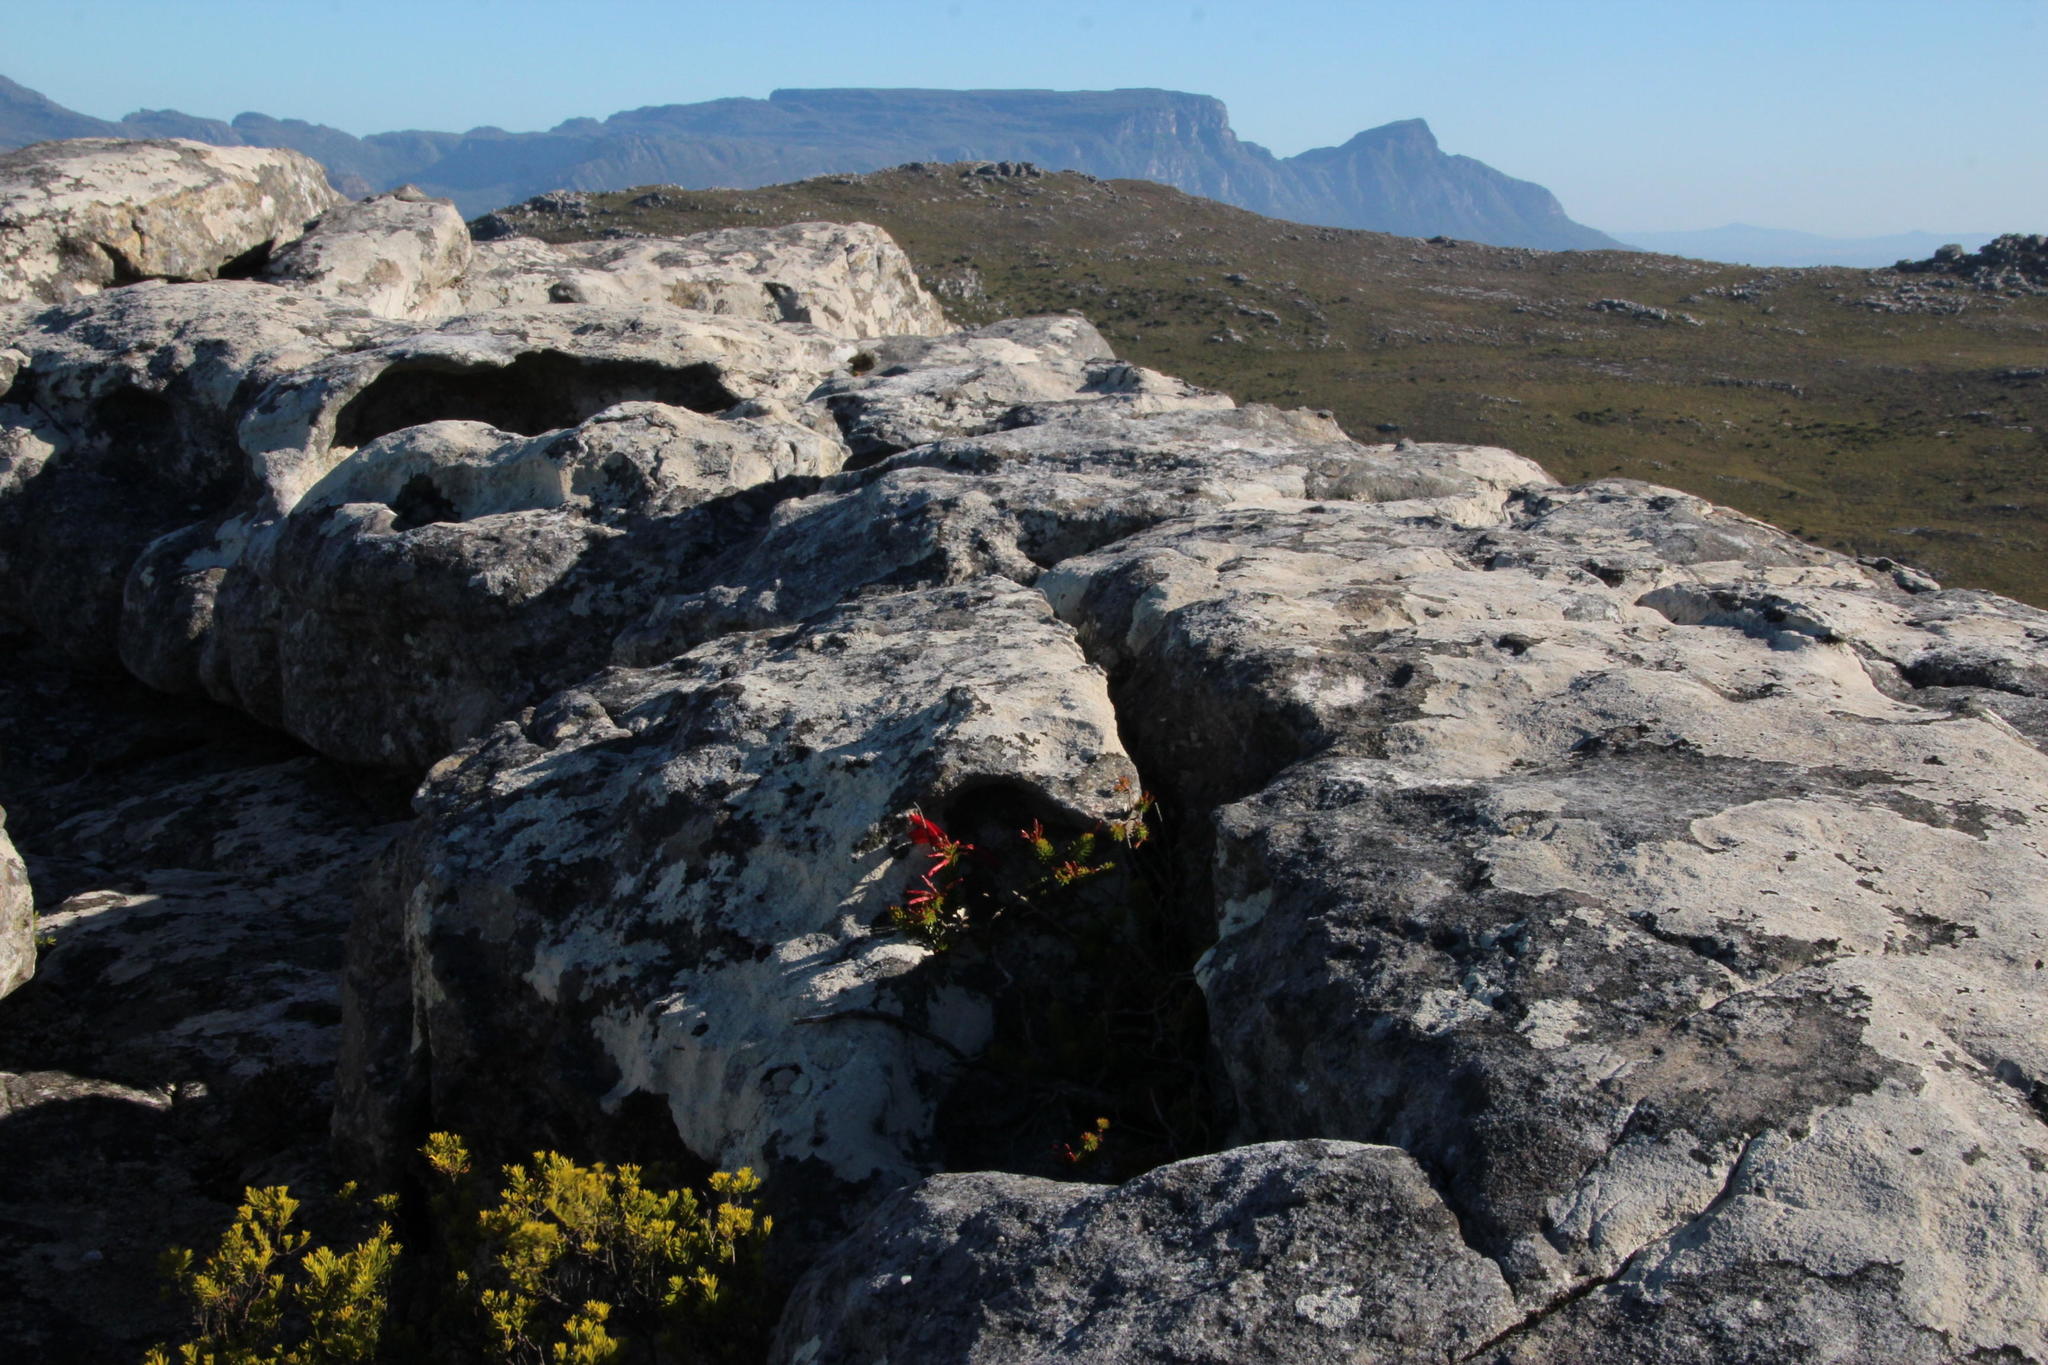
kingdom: Plantae
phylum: Tracheophyta
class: Magnoliopsida
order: Ericales
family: Ericaceae
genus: Erica
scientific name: Erica nevillei
